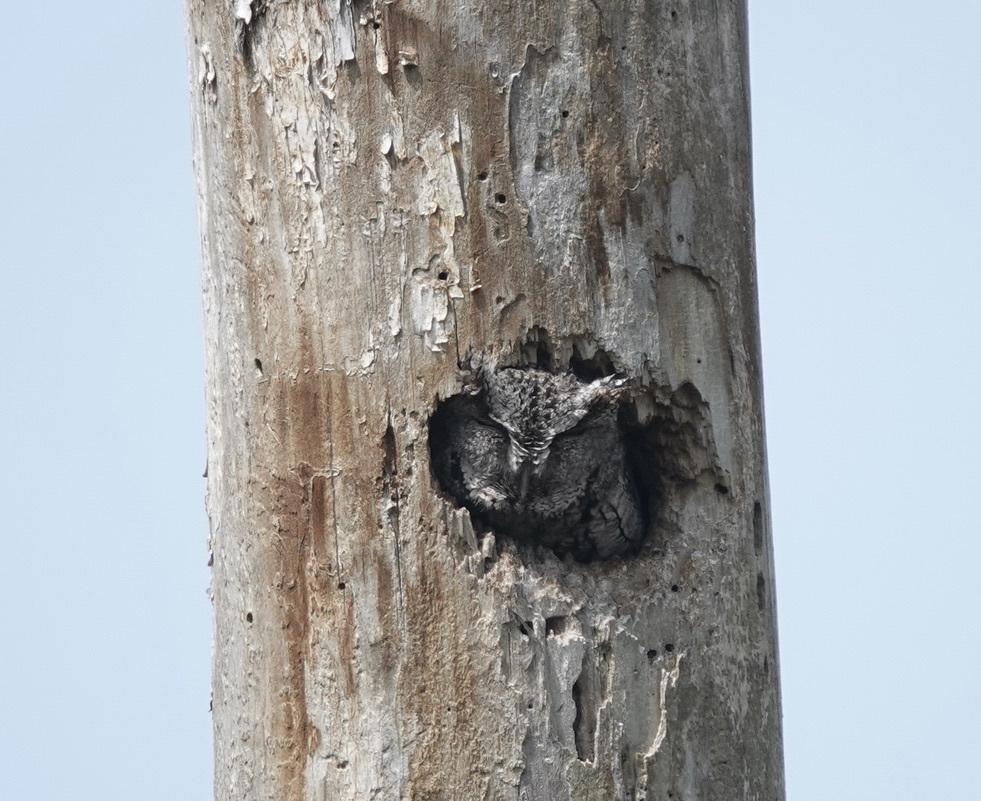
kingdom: Animalia
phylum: Chordata
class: Aves
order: Strigiformes
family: Strigidae
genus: Megascops
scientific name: Megascops asio
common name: Eastern screech-owl
